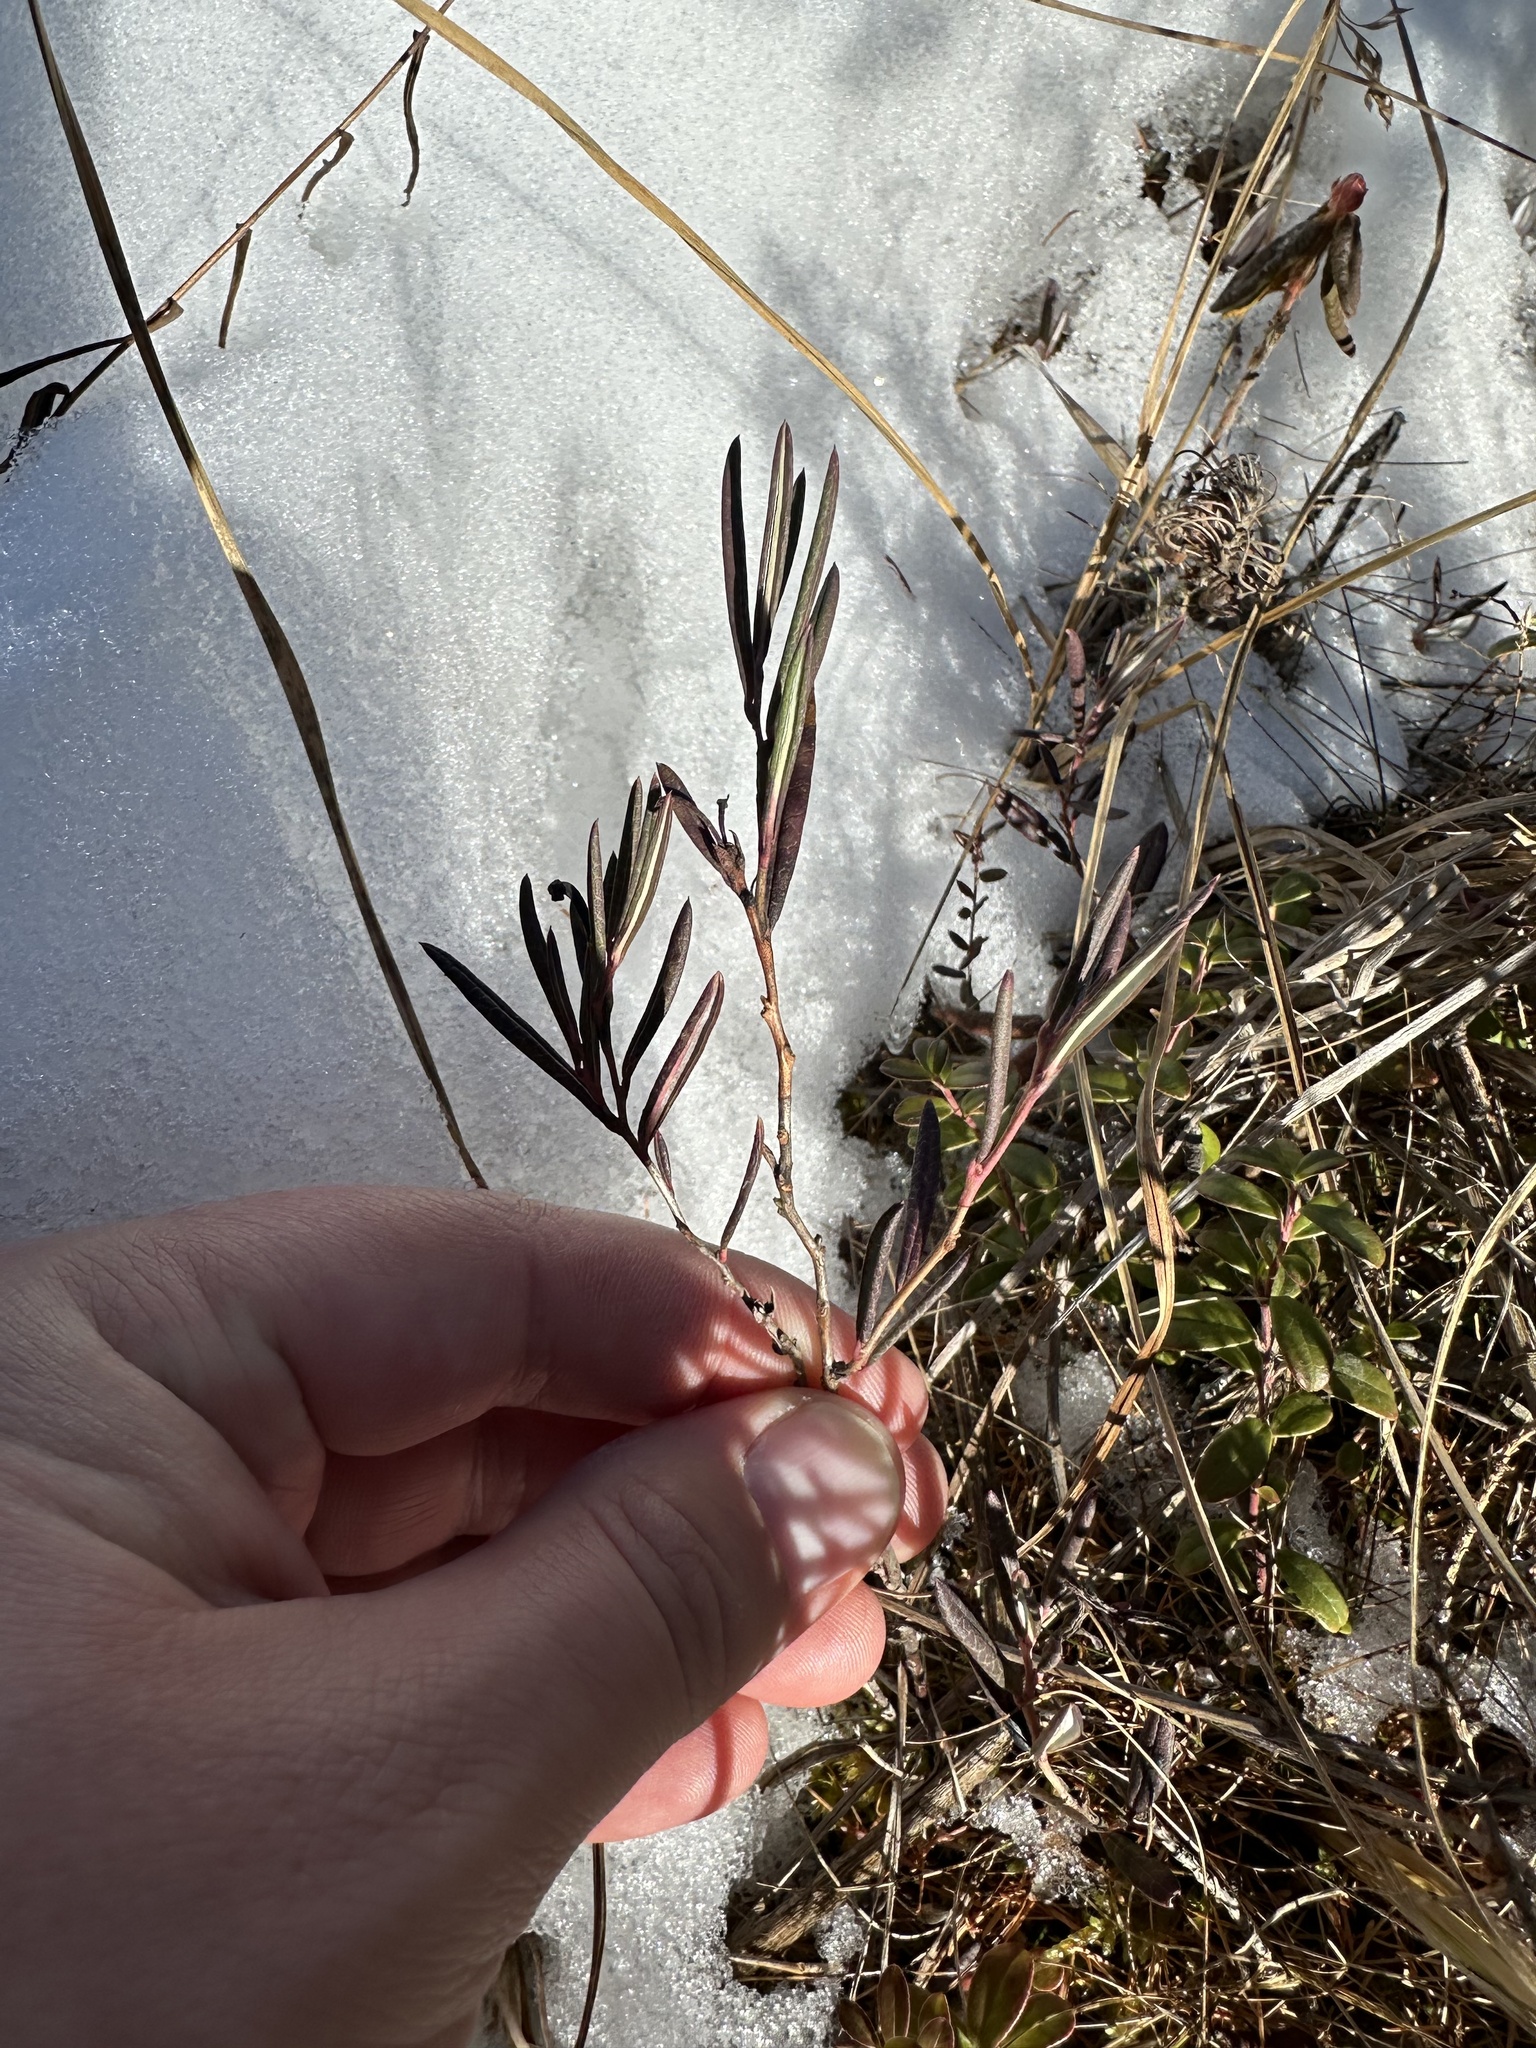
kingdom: Plantae
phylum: Tracheophyta
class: Magnoliopsida
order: Ericales
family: Ericaceae
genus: Andromeda
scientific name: Andromeda polifolia
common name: Bog-rosemary
